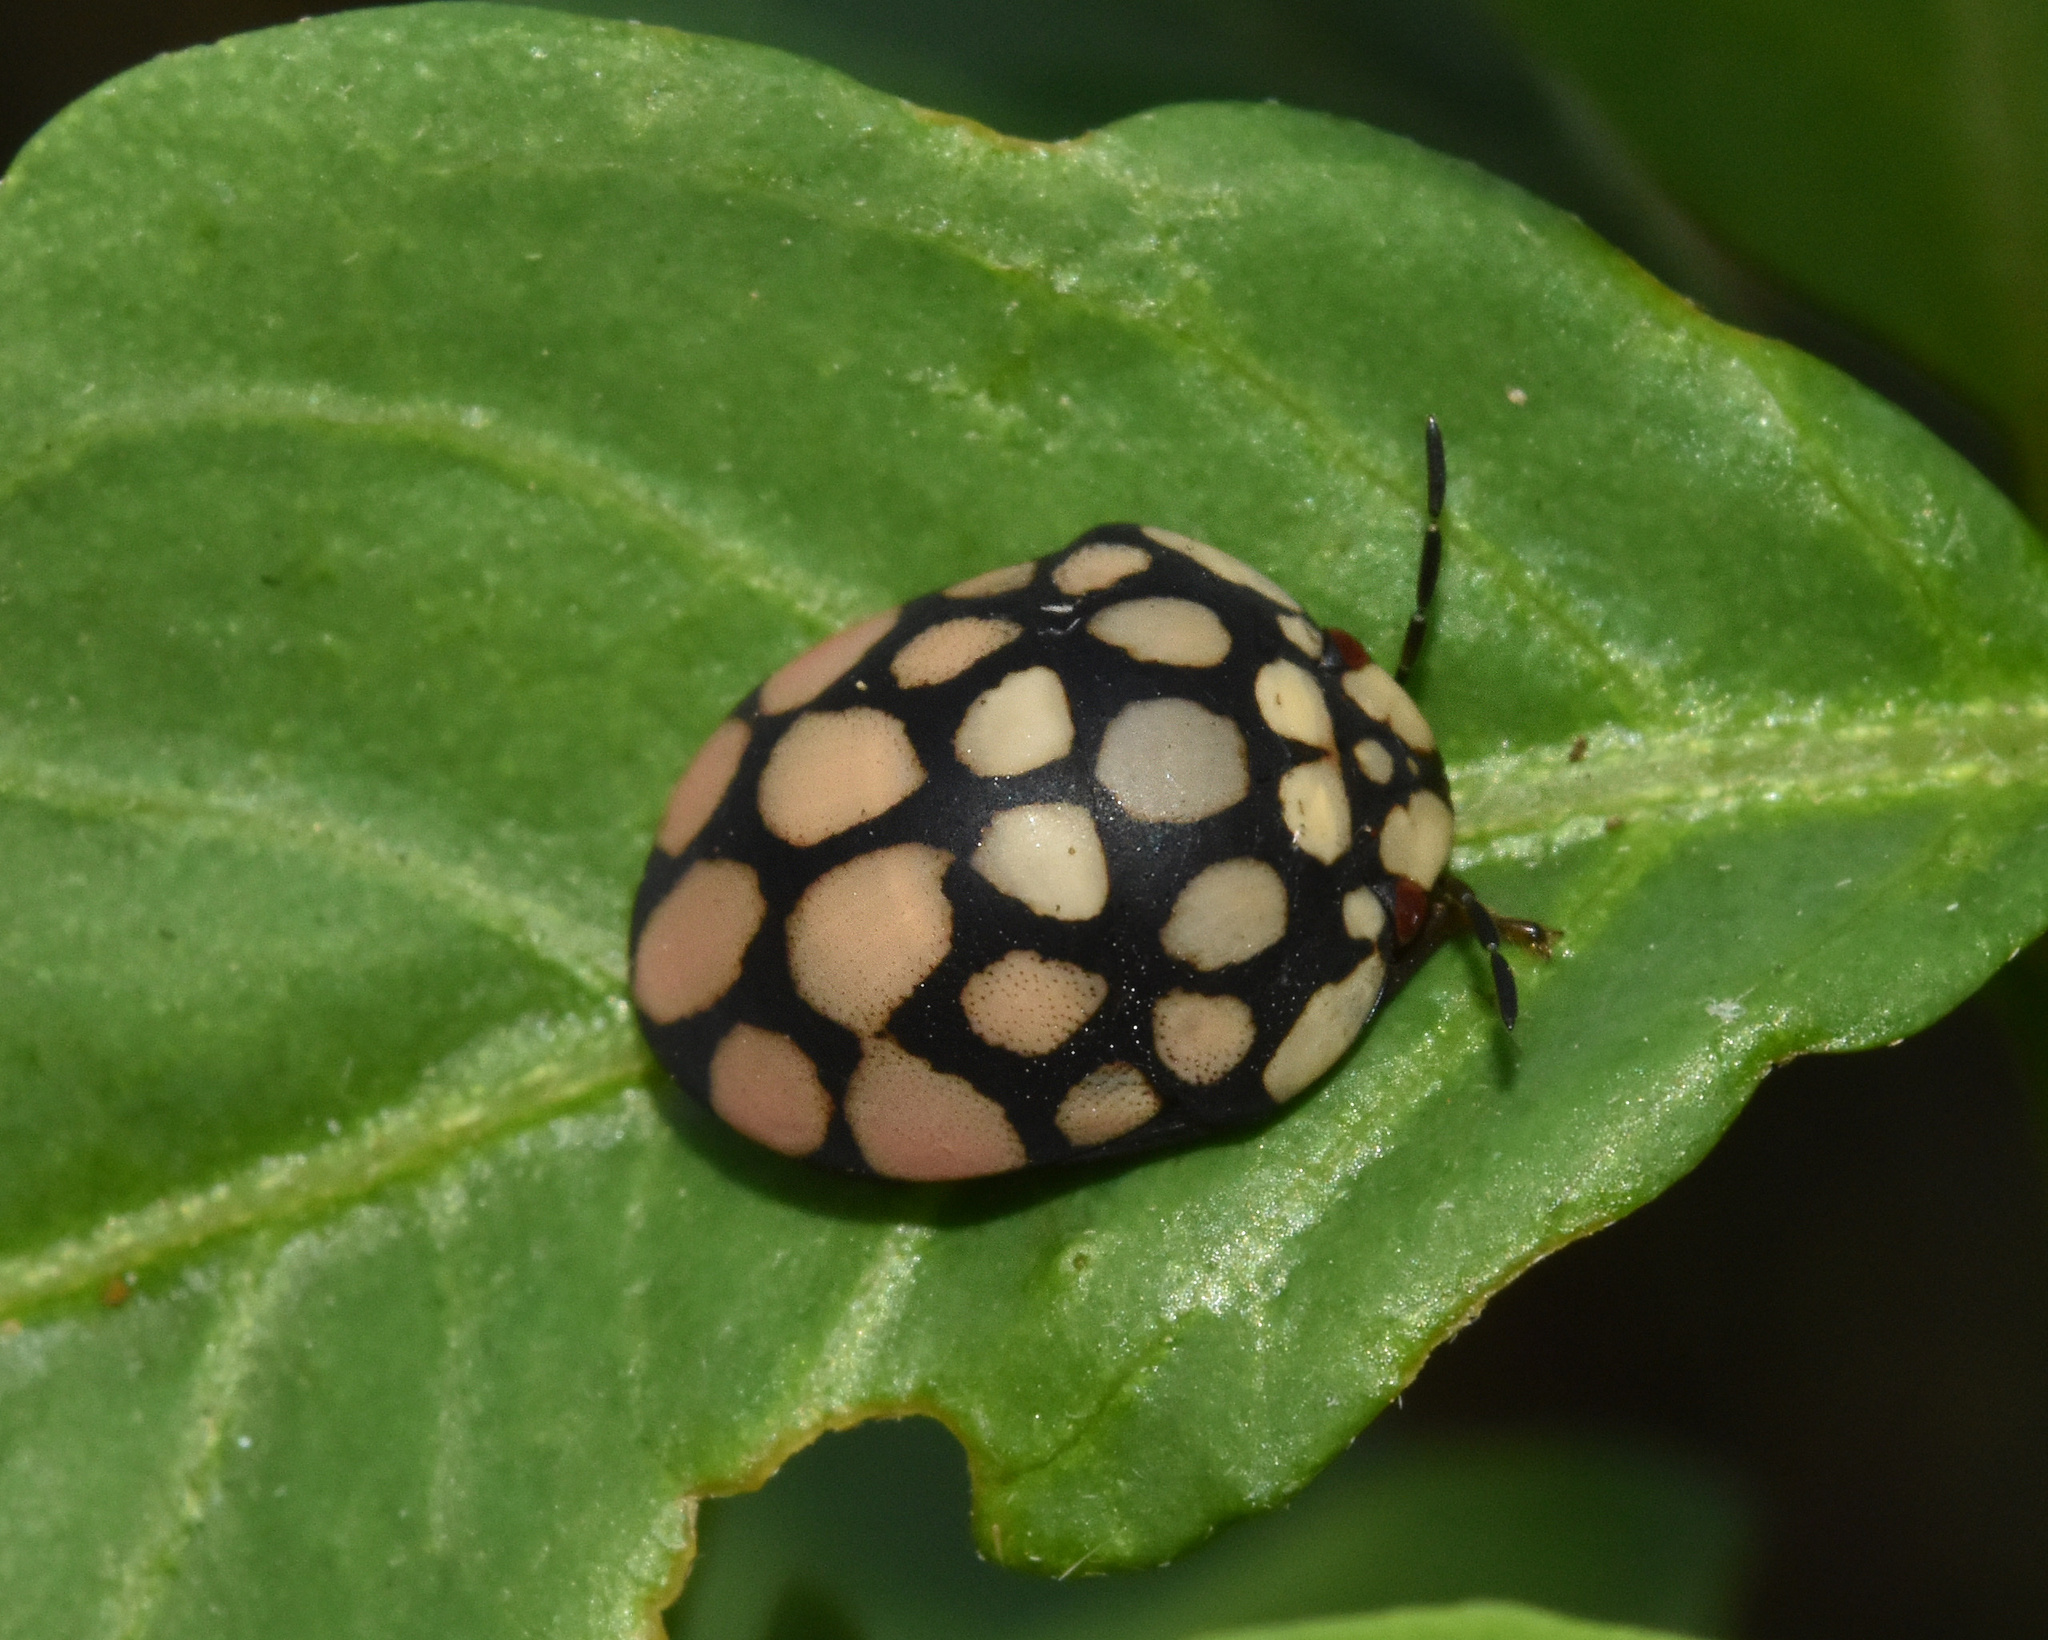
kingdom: Animalia
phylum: Arthropoda
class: Insecta
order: Hemiptera
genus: Steganocerus
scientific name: Steganocerus multipunctatus
